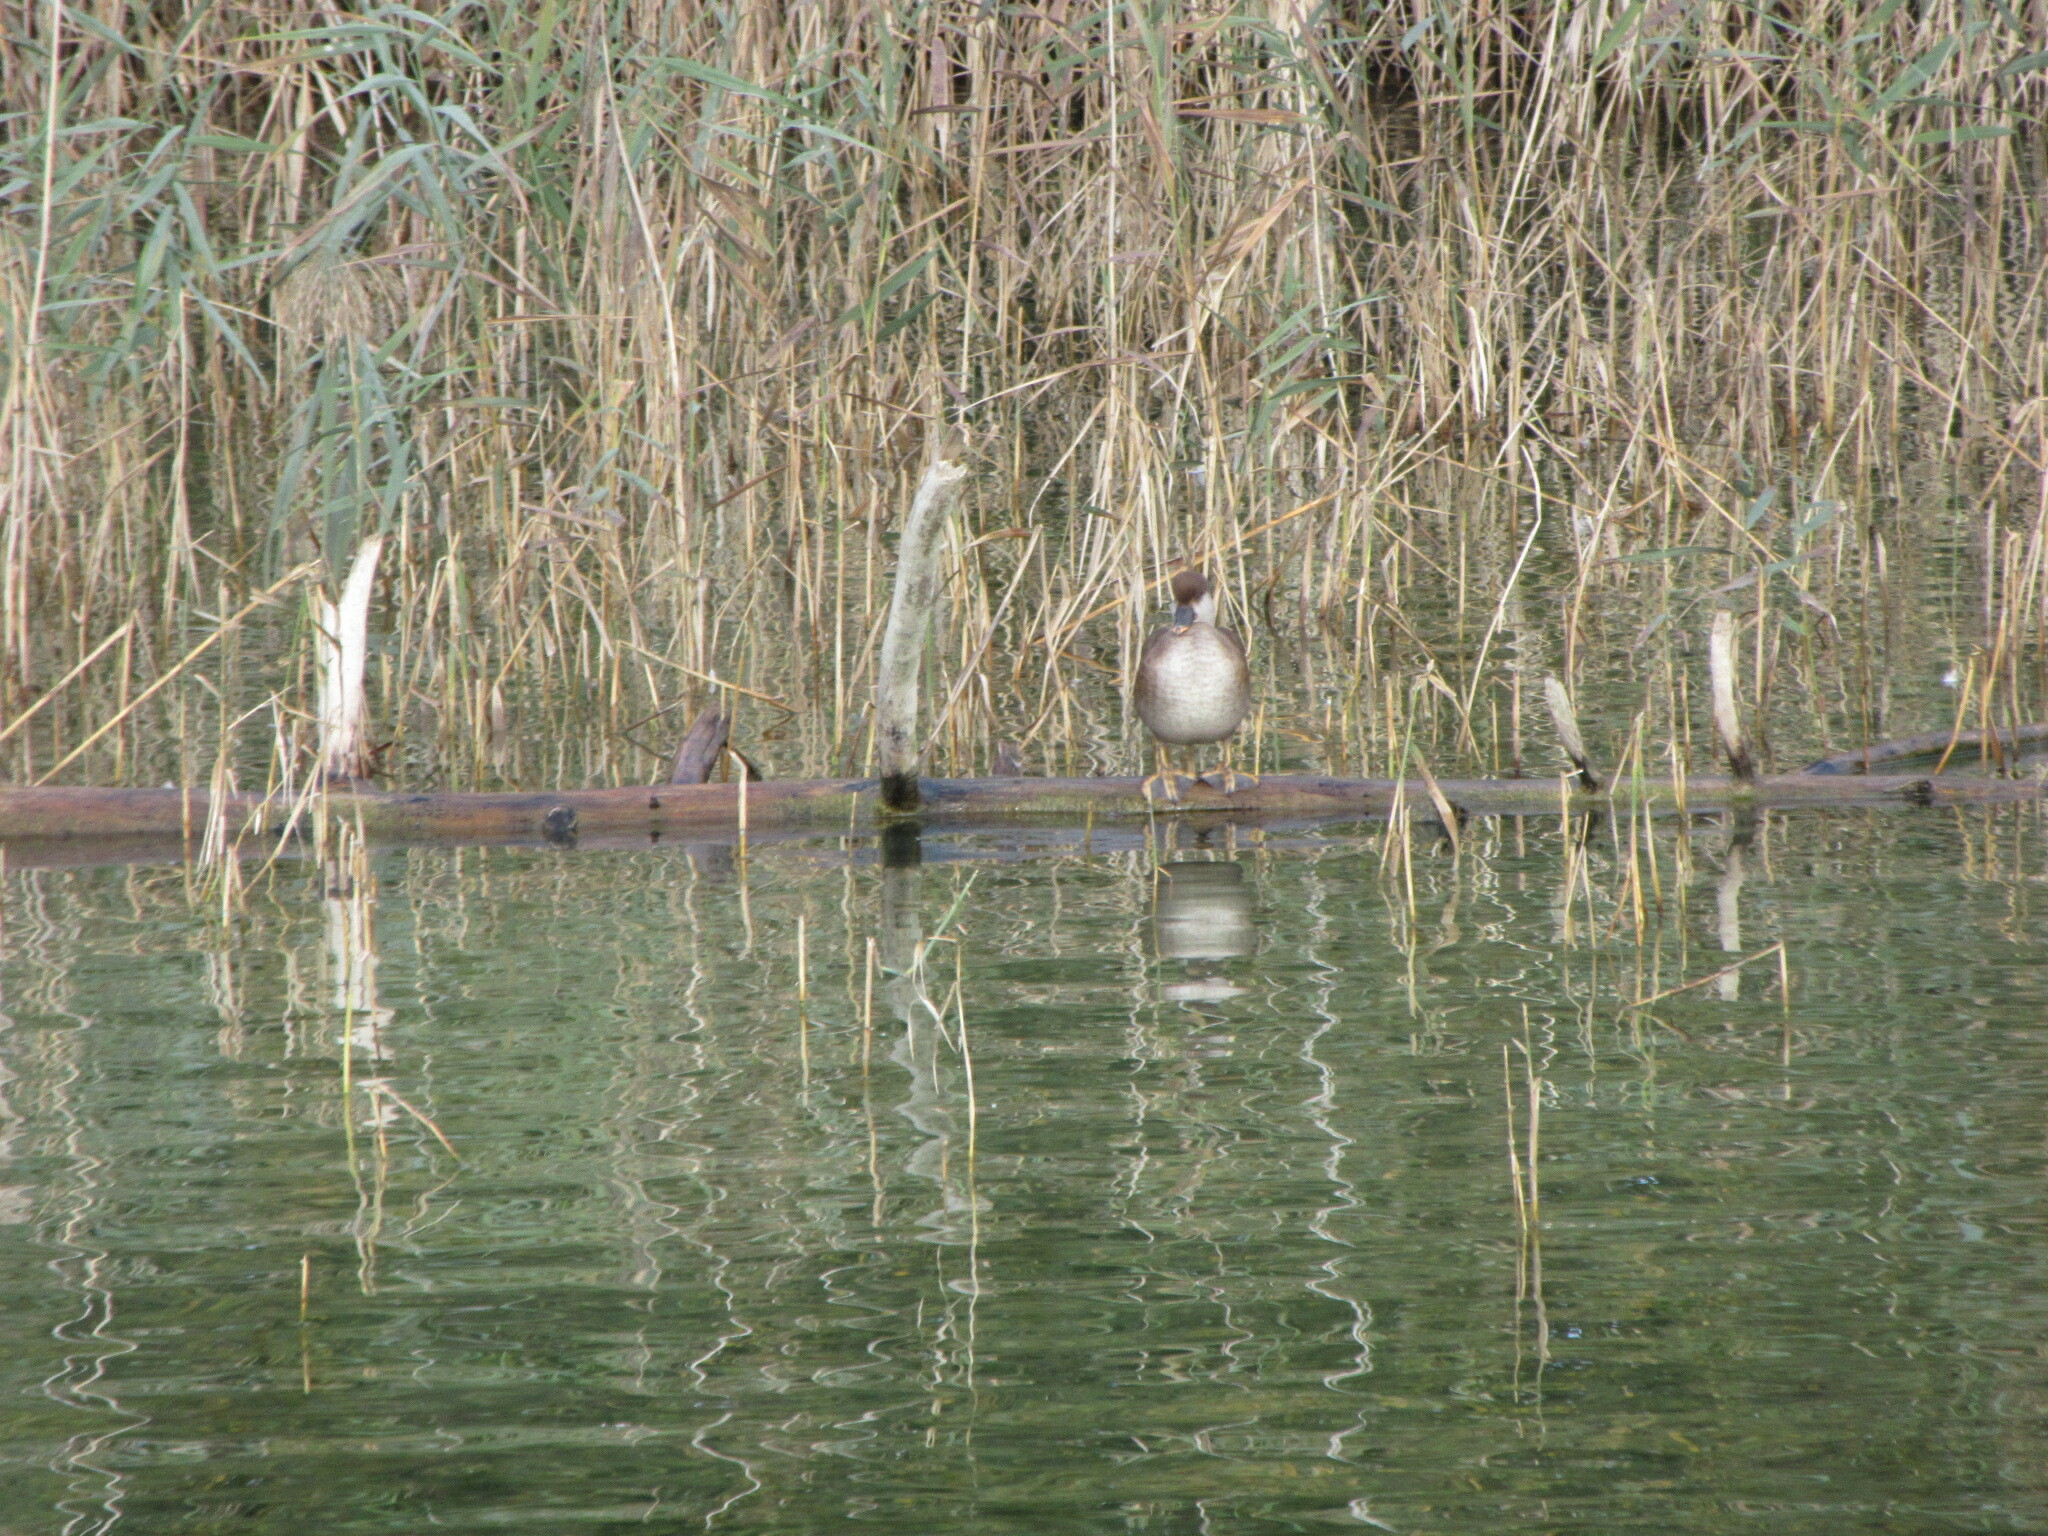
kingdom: Animalia
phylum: Chordata
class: Aves
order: Anseriformes
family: Anatidae
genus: Netta
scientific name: Netta rufina
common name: Red-crested pochard
